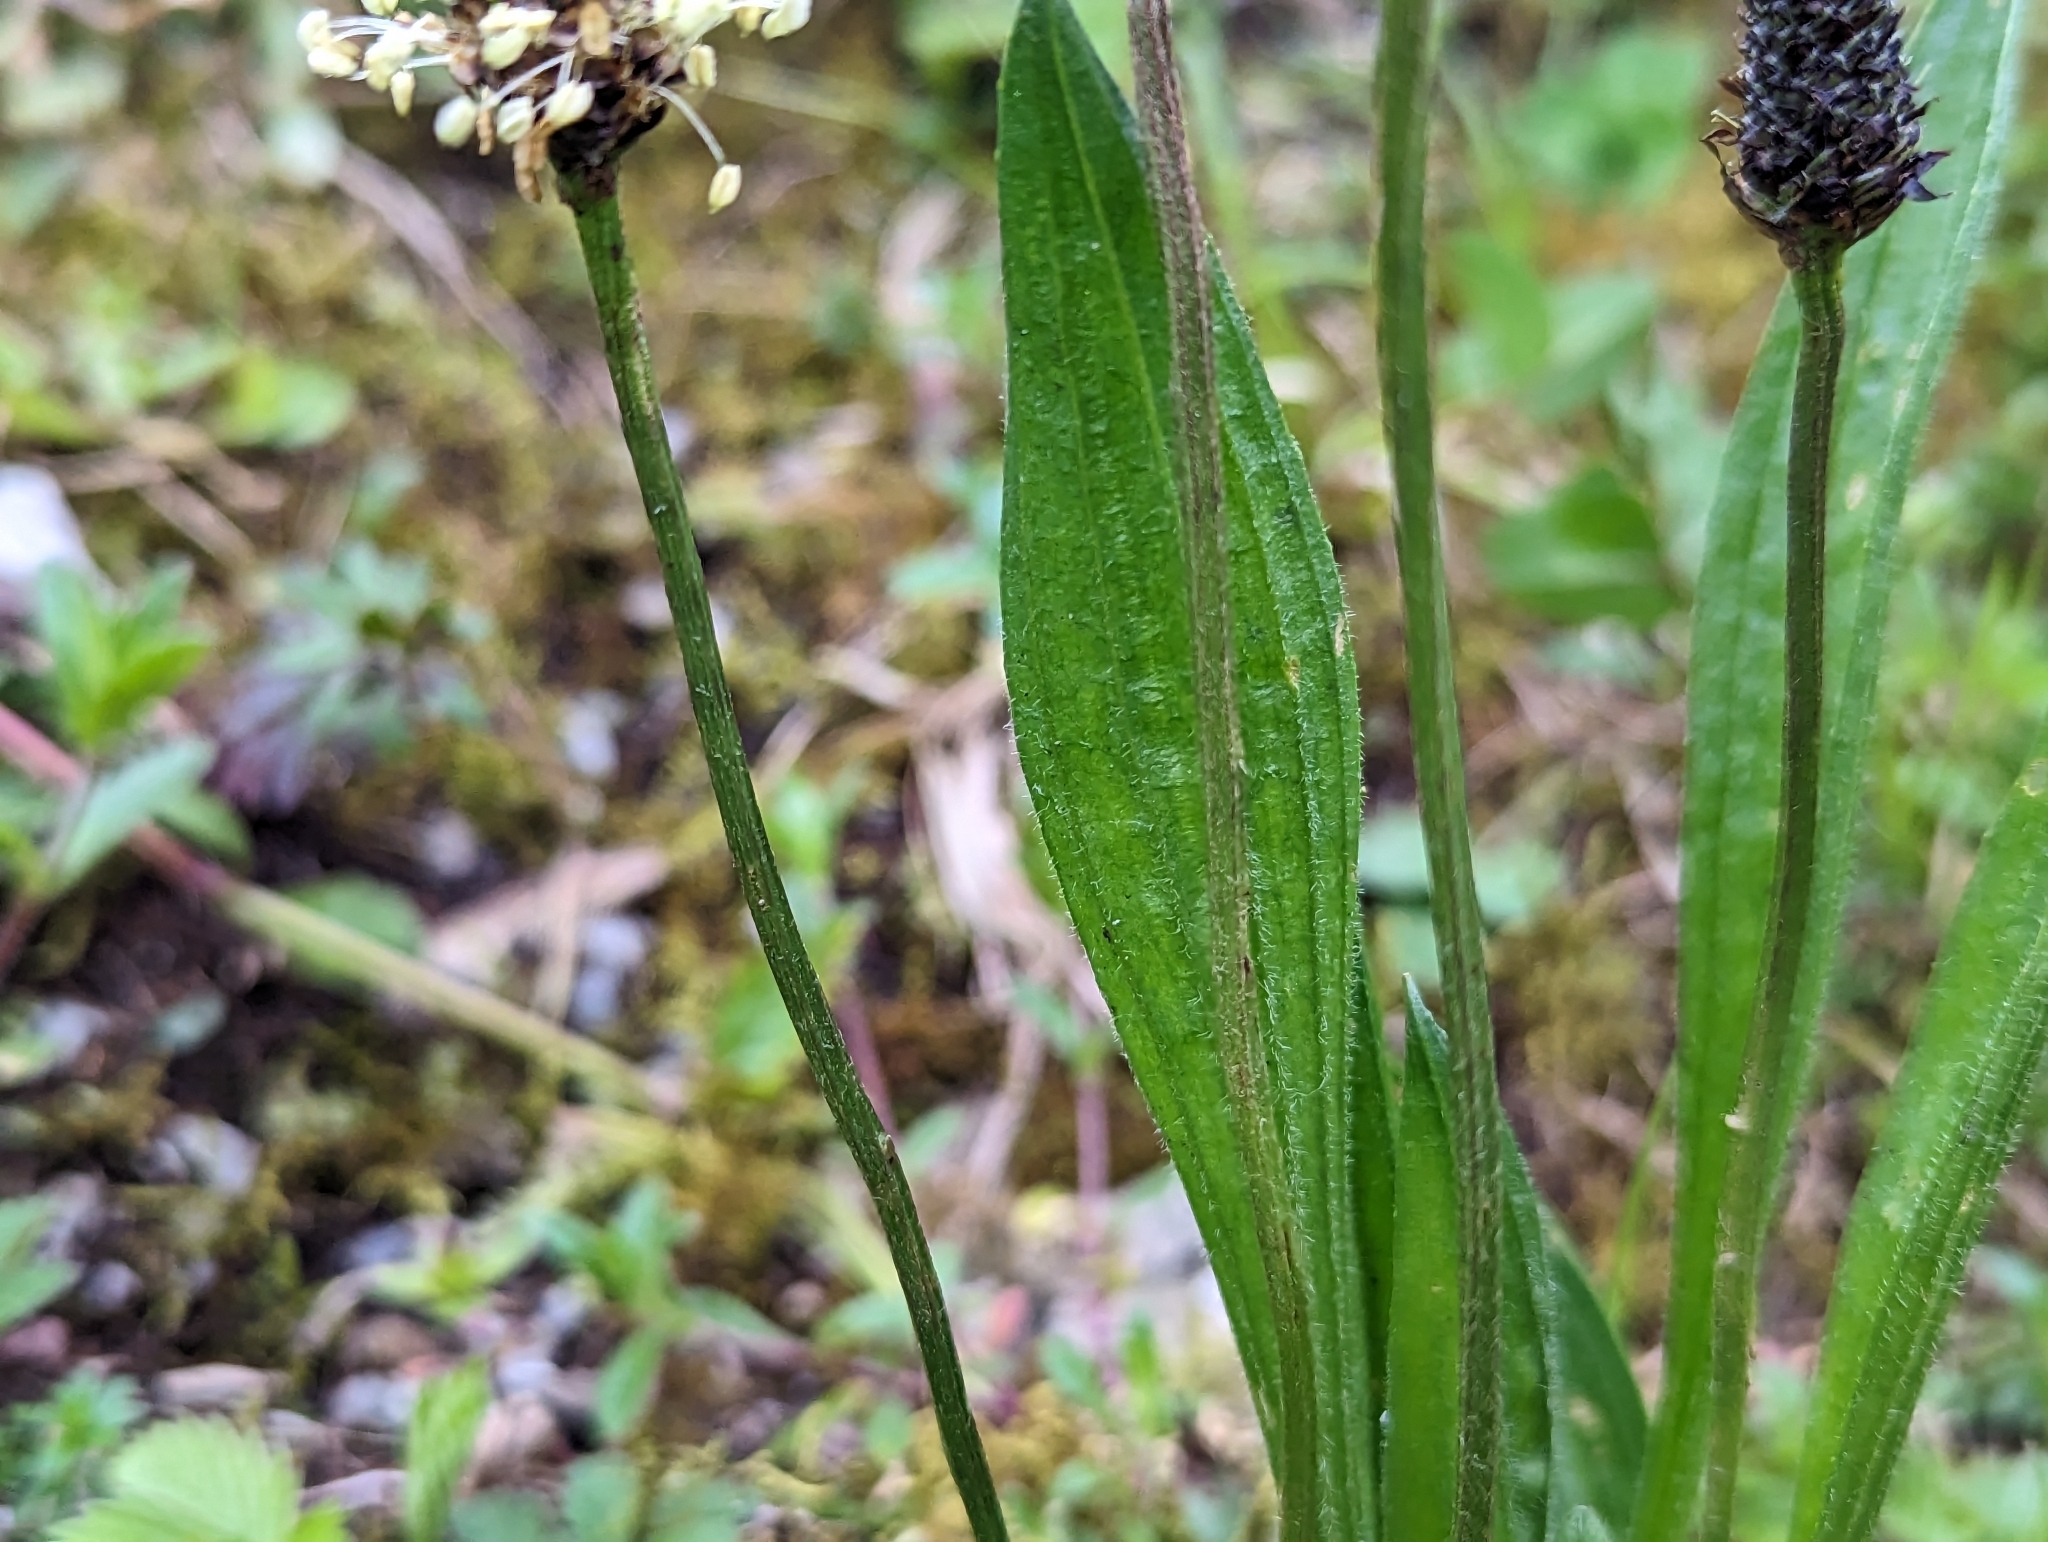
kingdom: Plantae
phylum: Tracheophyta
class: Magnoliopsida
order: Lamiales
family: Plantaginaceae
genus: Plantago
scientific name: Plantago lanceolata
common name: Ribwort plantain
